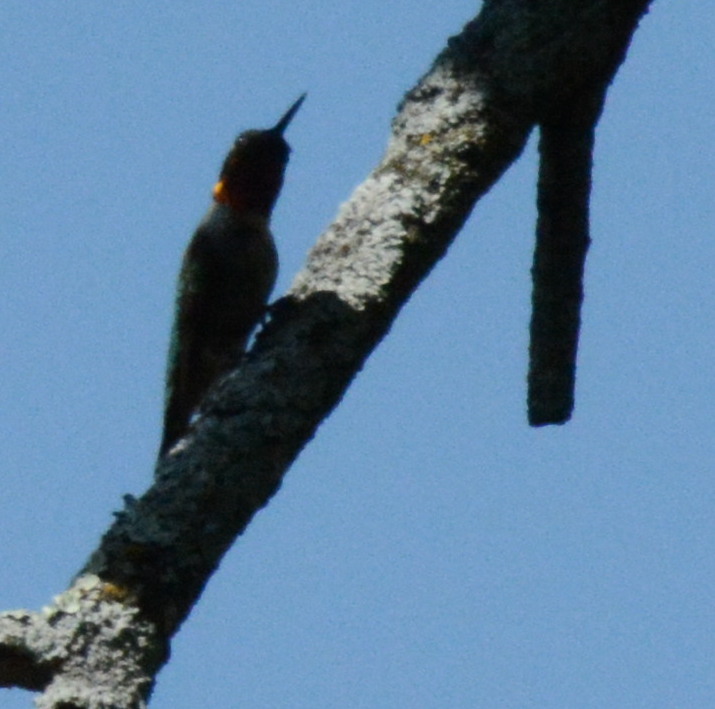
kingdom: Animalia
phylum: Chordata
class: Aves
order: Apodiformes
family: Trochilidae
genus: Archilochus
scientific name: Archilochus colubris
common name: Ruby-throated hummingbird
